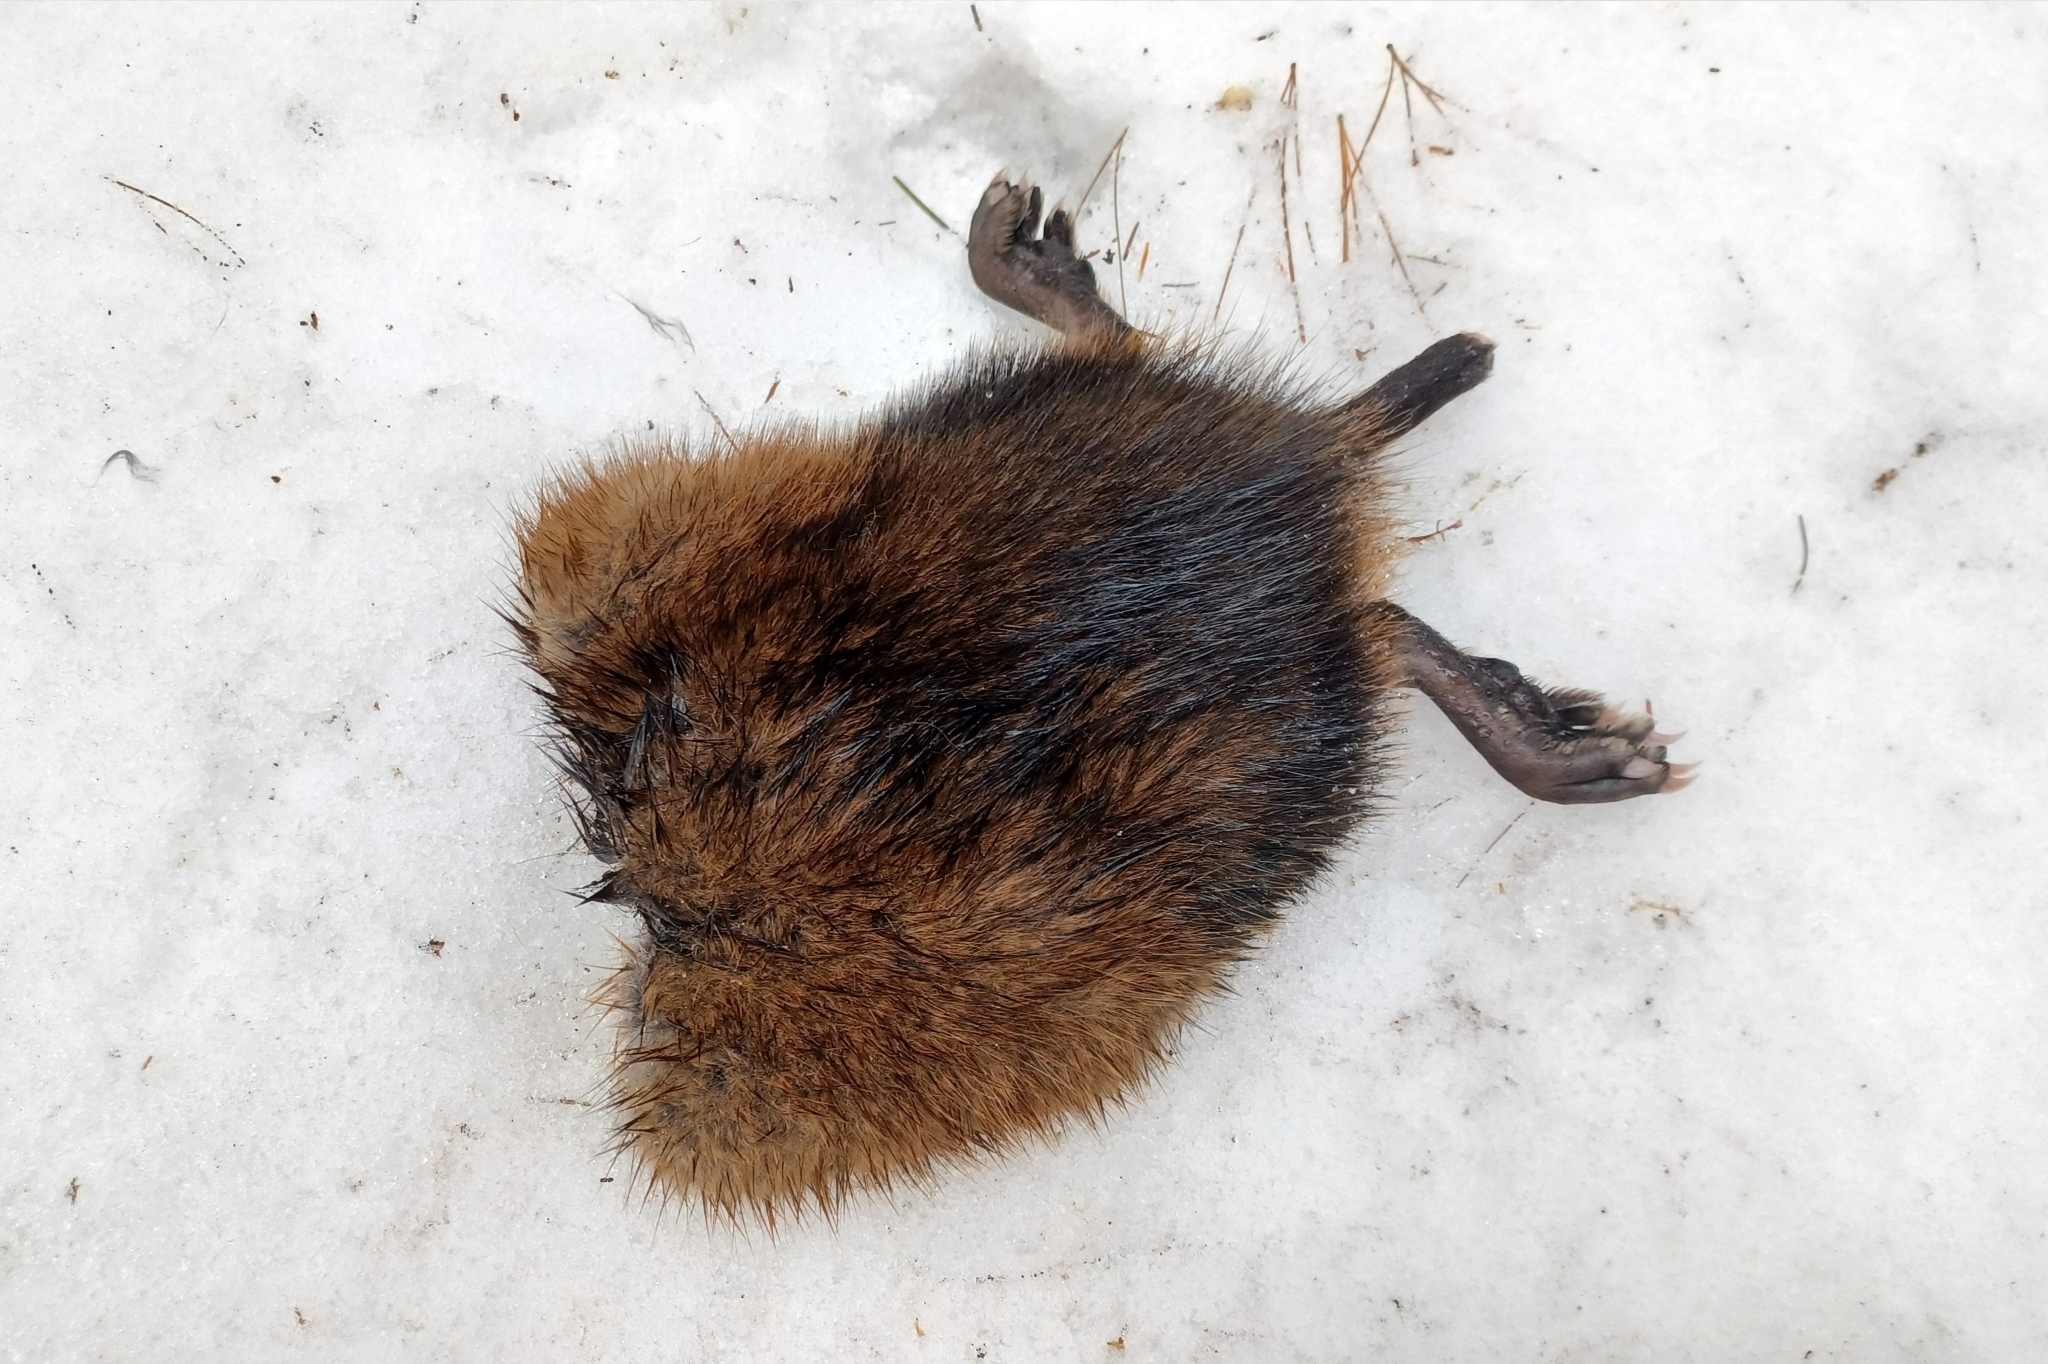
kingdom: Animalia
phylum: Chordata
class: Mammalia
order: Rodentia
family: Cricetidae
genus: Ondatra
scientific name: Ondatra zibethicus
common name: Muskrat
